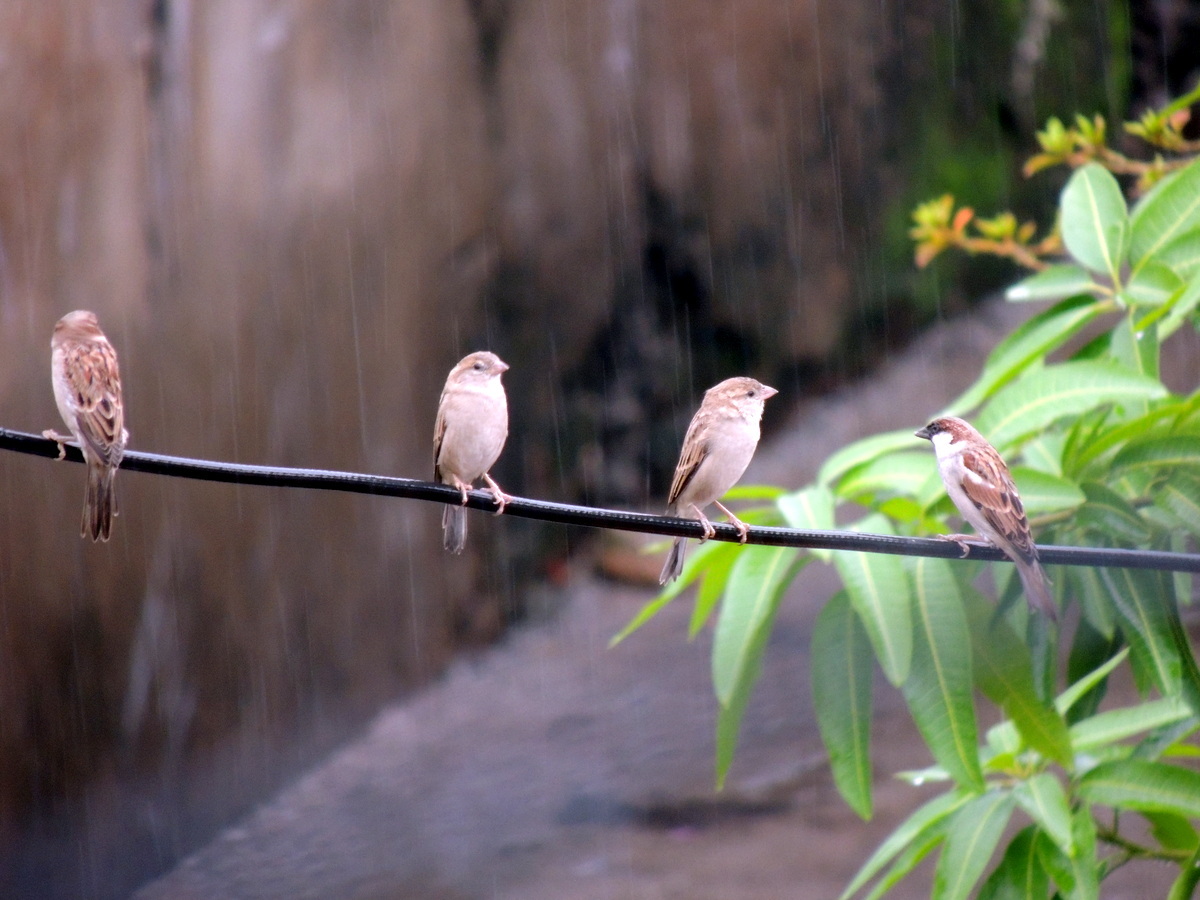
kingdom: Animalia
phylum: Chordata
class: Aves
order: Passeriformes
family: Passeridae
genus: Passer
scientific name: Passer domesticus
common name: House sparrow
